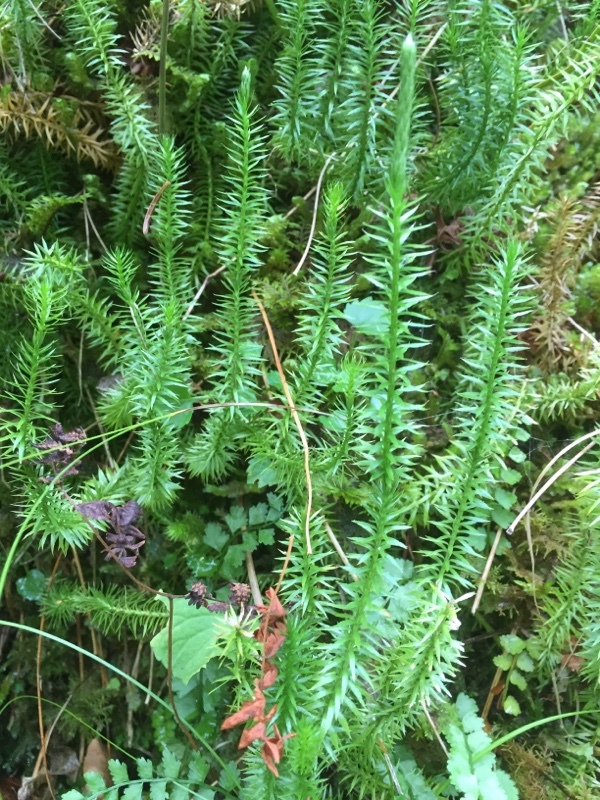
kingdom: Plantae
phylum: Tracheophyta
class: Lycopodiopsida
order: Lycopodiales
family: Lycopodiaceae
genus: Spinulum
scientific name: Spinulum annotinum
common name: Interrupted club-moss
